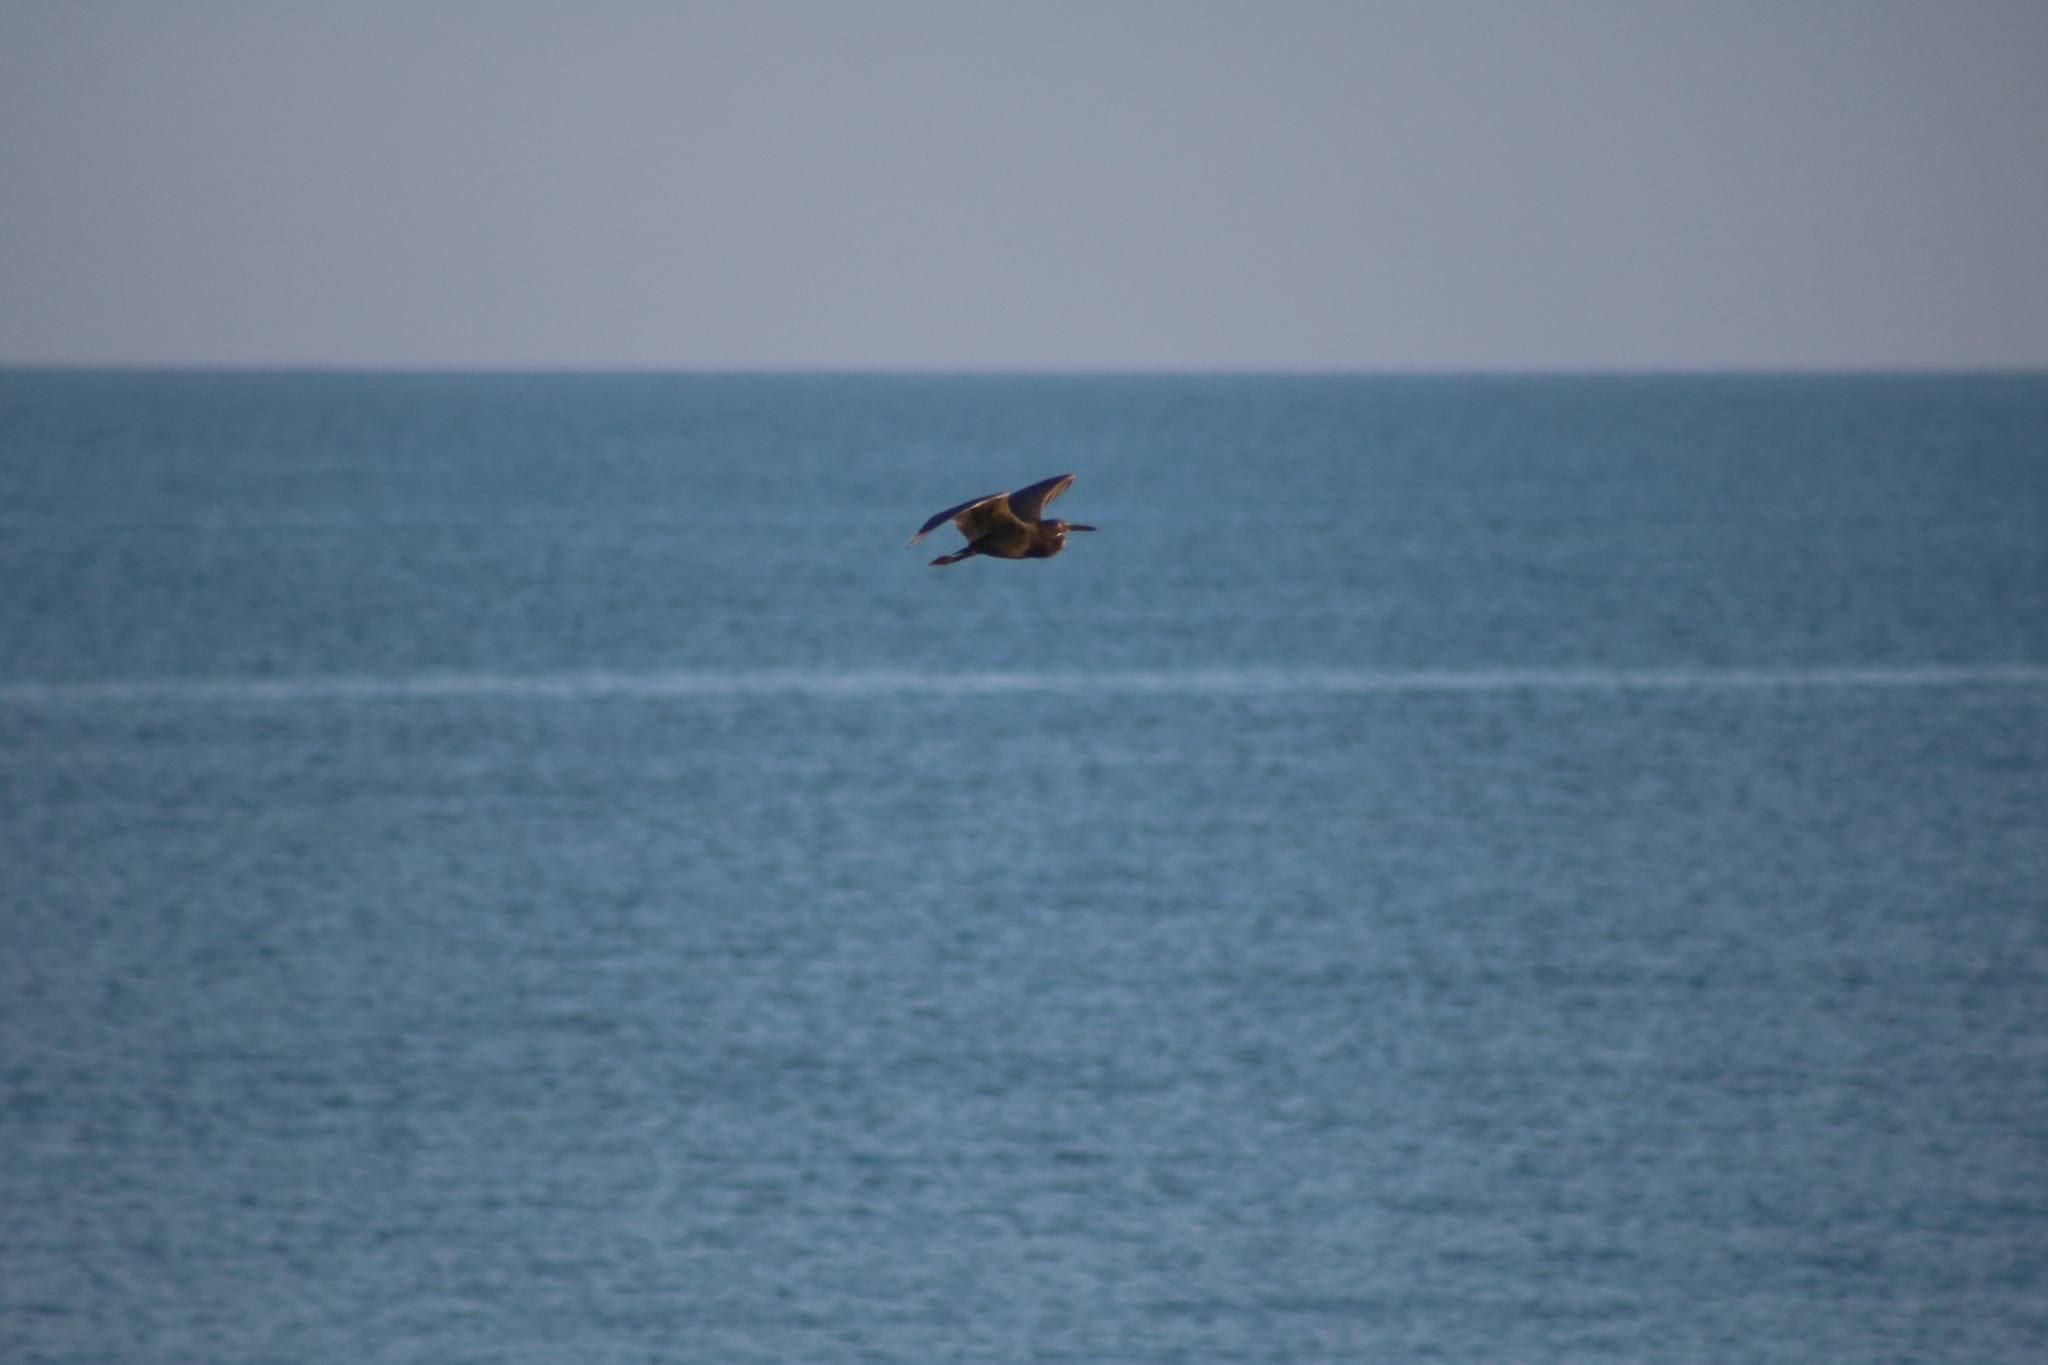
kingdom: Animalia
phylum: Chordata
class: Aves
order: Pelecaniformes
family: Ardeidae
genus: Egretta
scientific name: Egretta sacra
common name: Pacific reef heron
